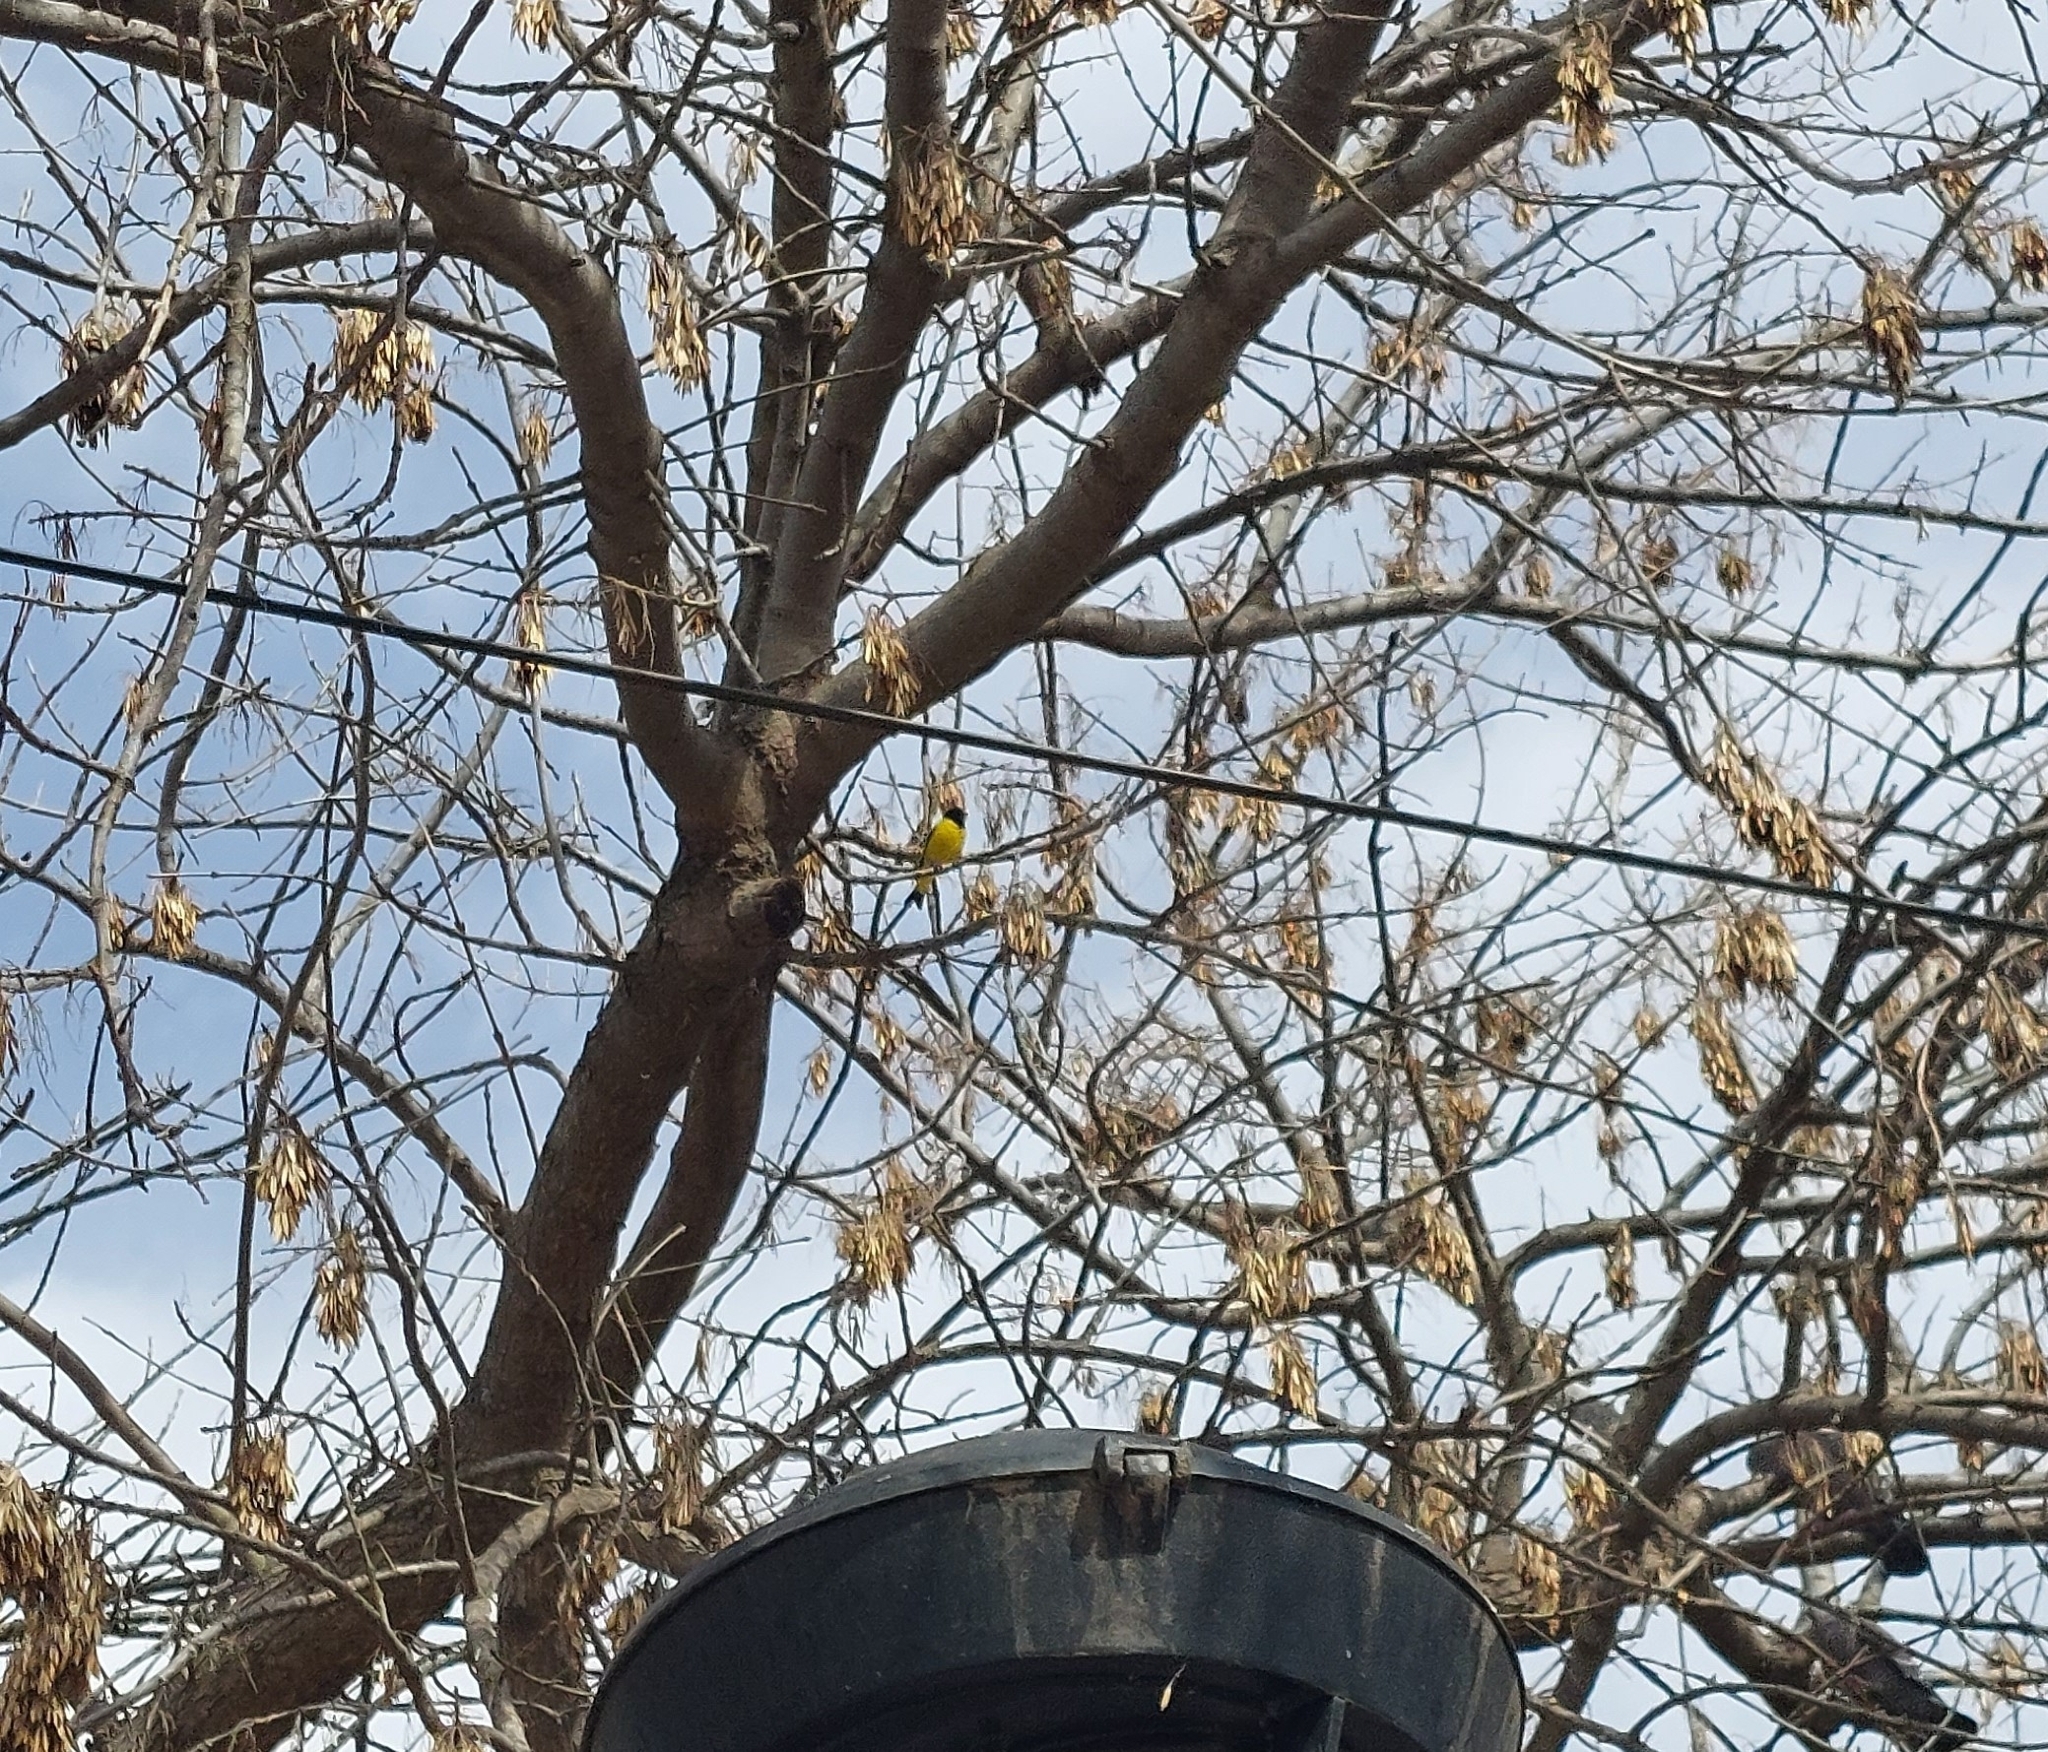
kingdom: Animalia
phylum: Chordata
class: Aves
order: Passeriformes
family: Fringillidae
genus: Spinus
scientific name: Spinus magellanicus
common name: Hooded siskin
